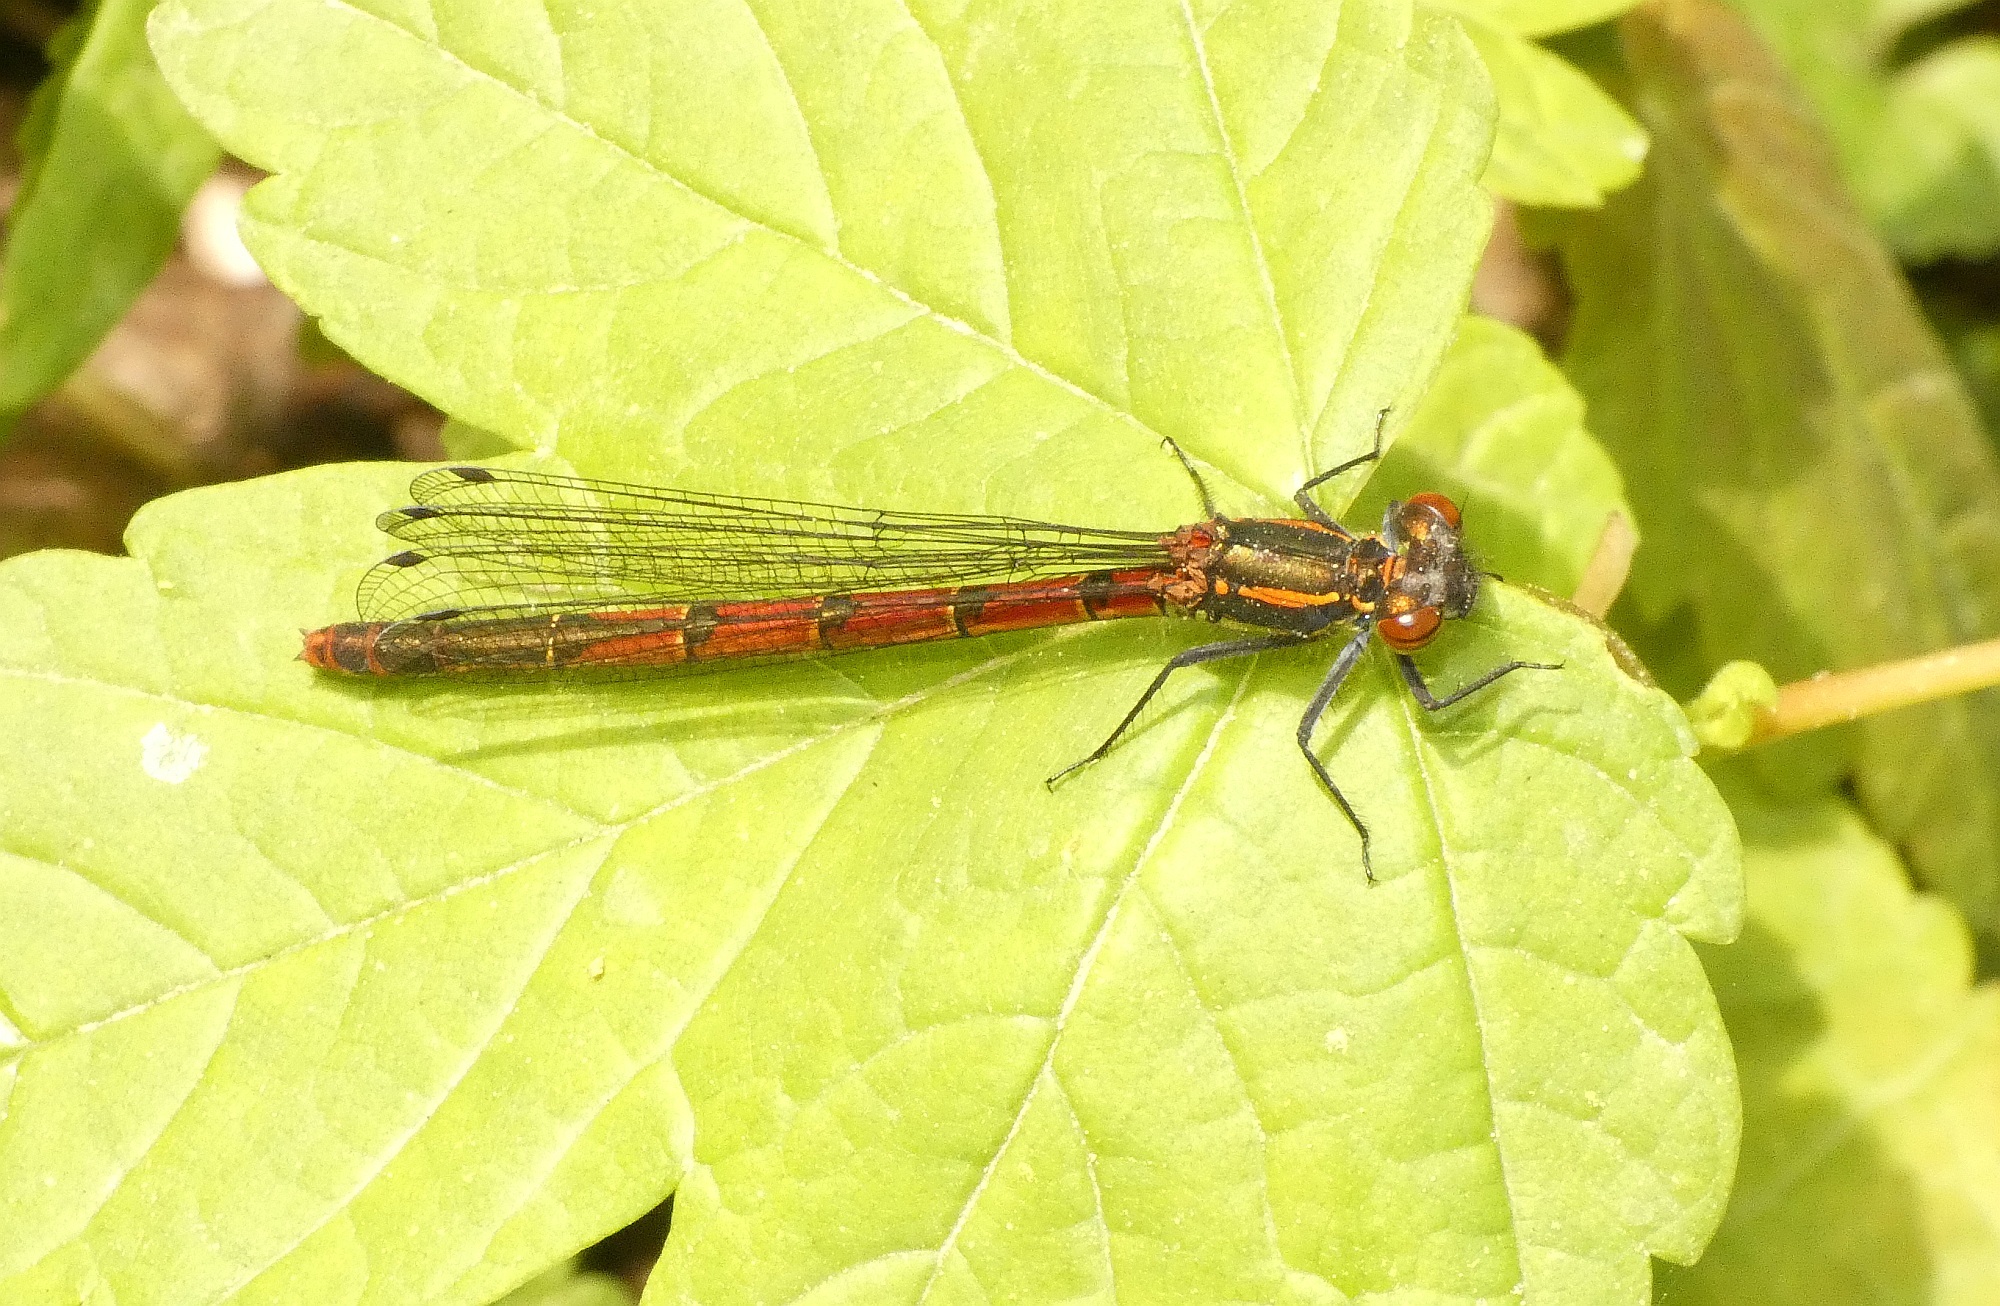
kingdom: Animalia
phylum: Arthropoda
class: Insecta
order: Odonata
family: Coenagrionidae
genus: Pyrrhosoma
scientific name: Pyrrhosoma nymphula
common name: Large red damsel
